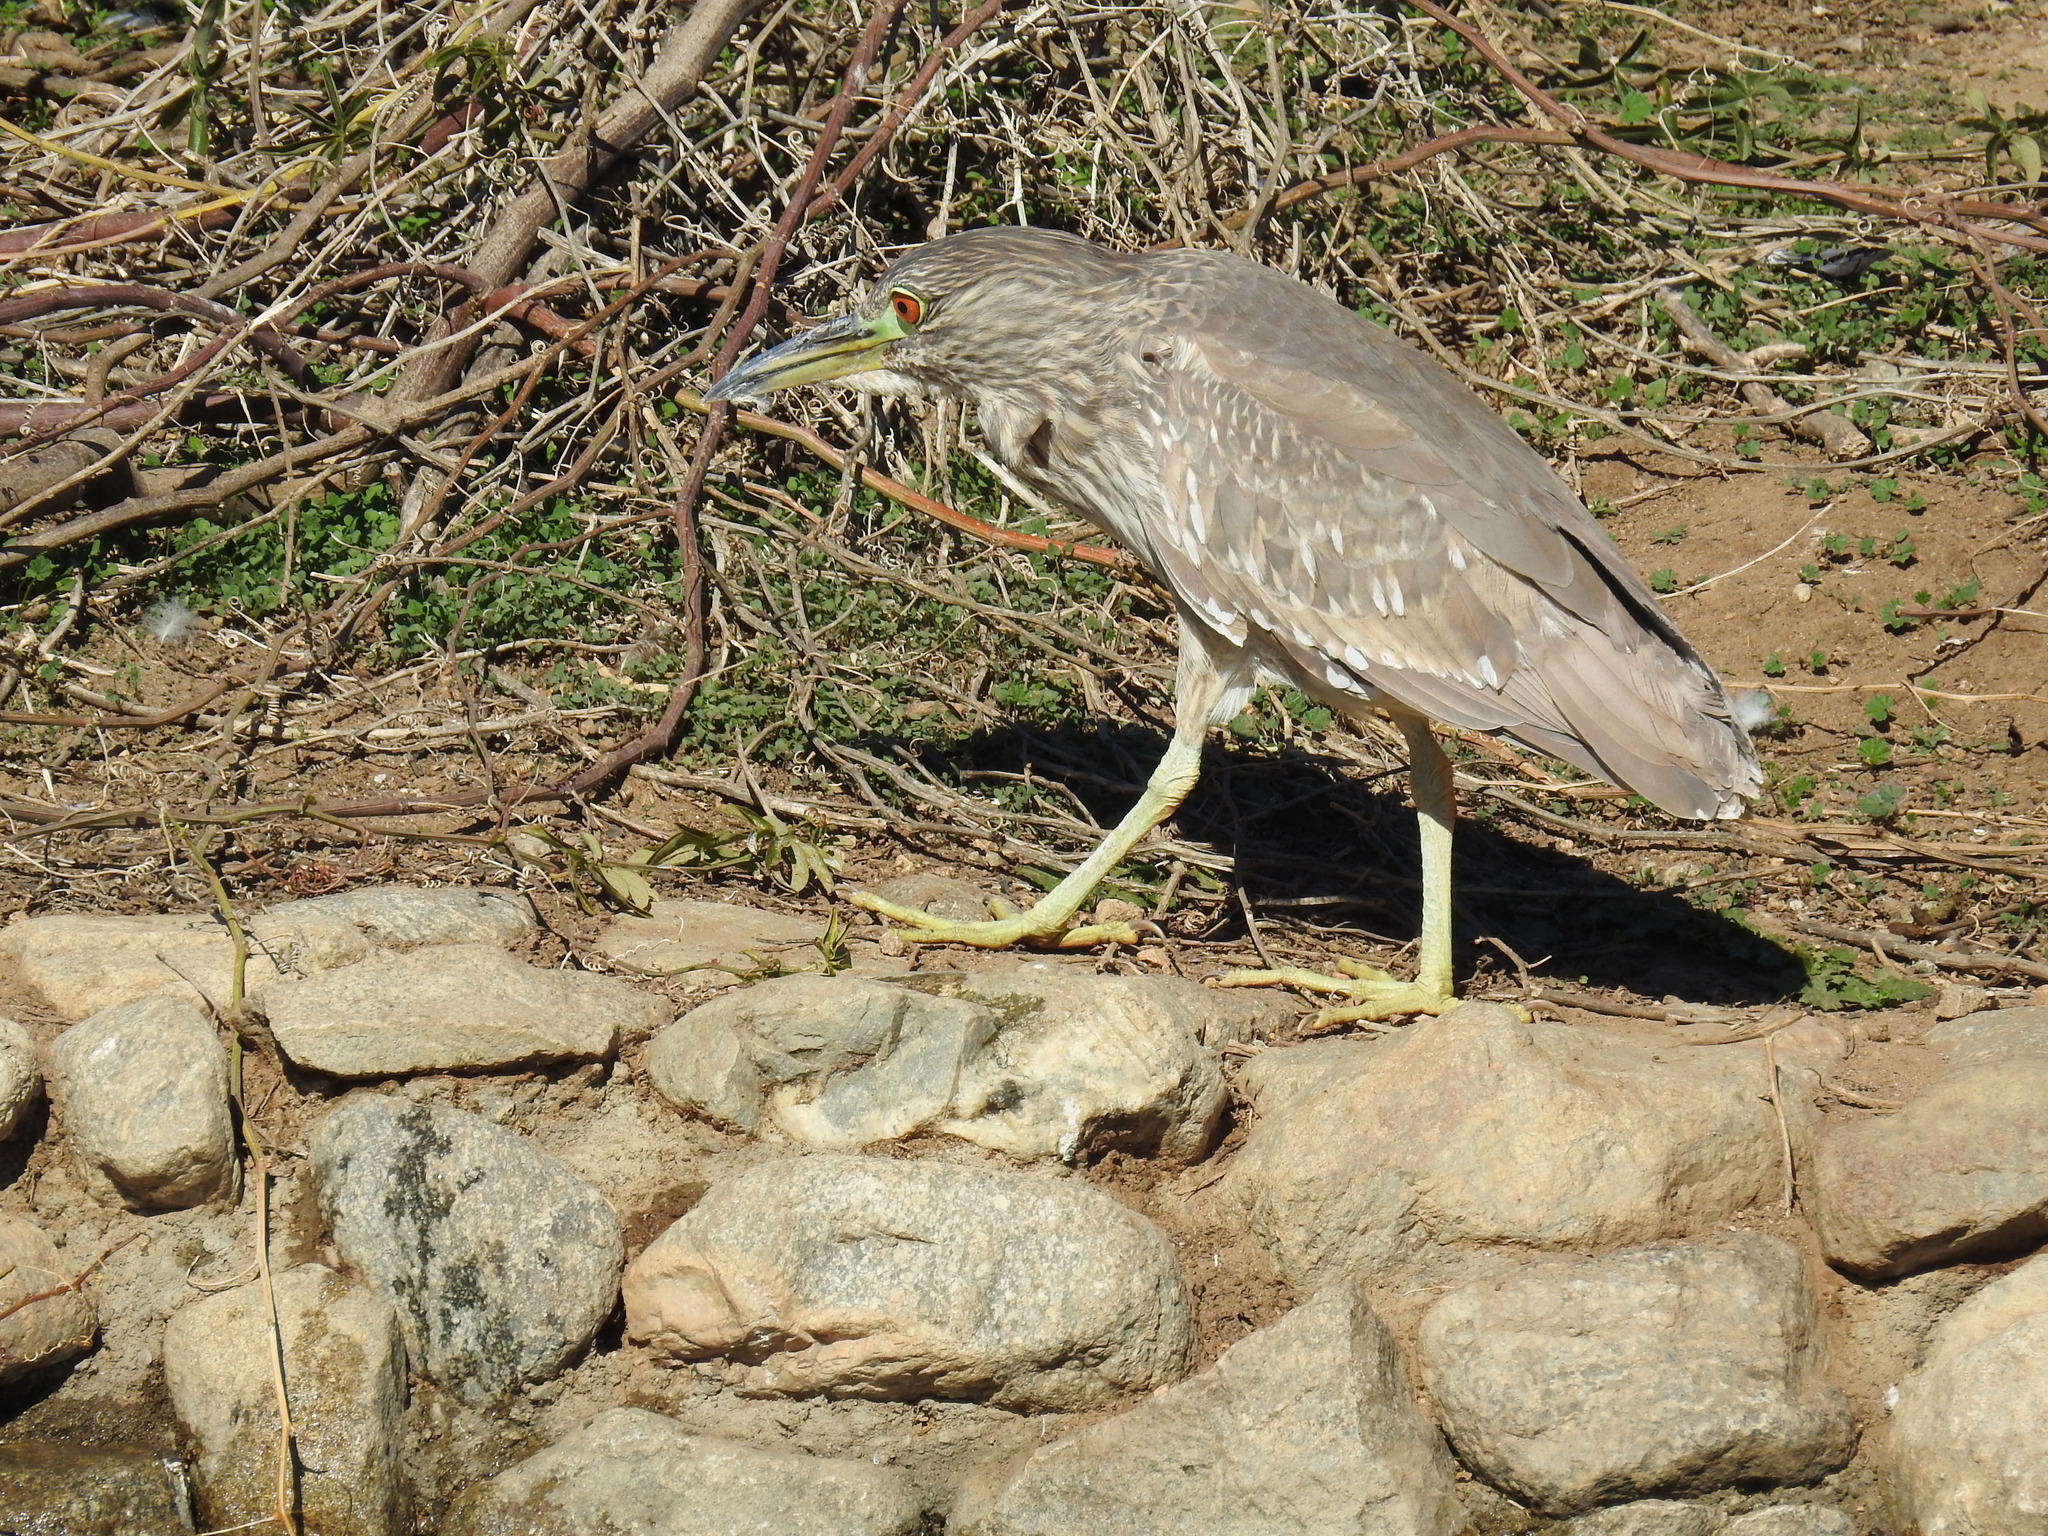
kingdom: Animalia
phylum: Chordata
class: Aves
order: Pelecaniformes
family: Ardeidae
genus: Nycticorax
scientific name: Nycticorax nycticorax
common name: Black-crowned night heron
